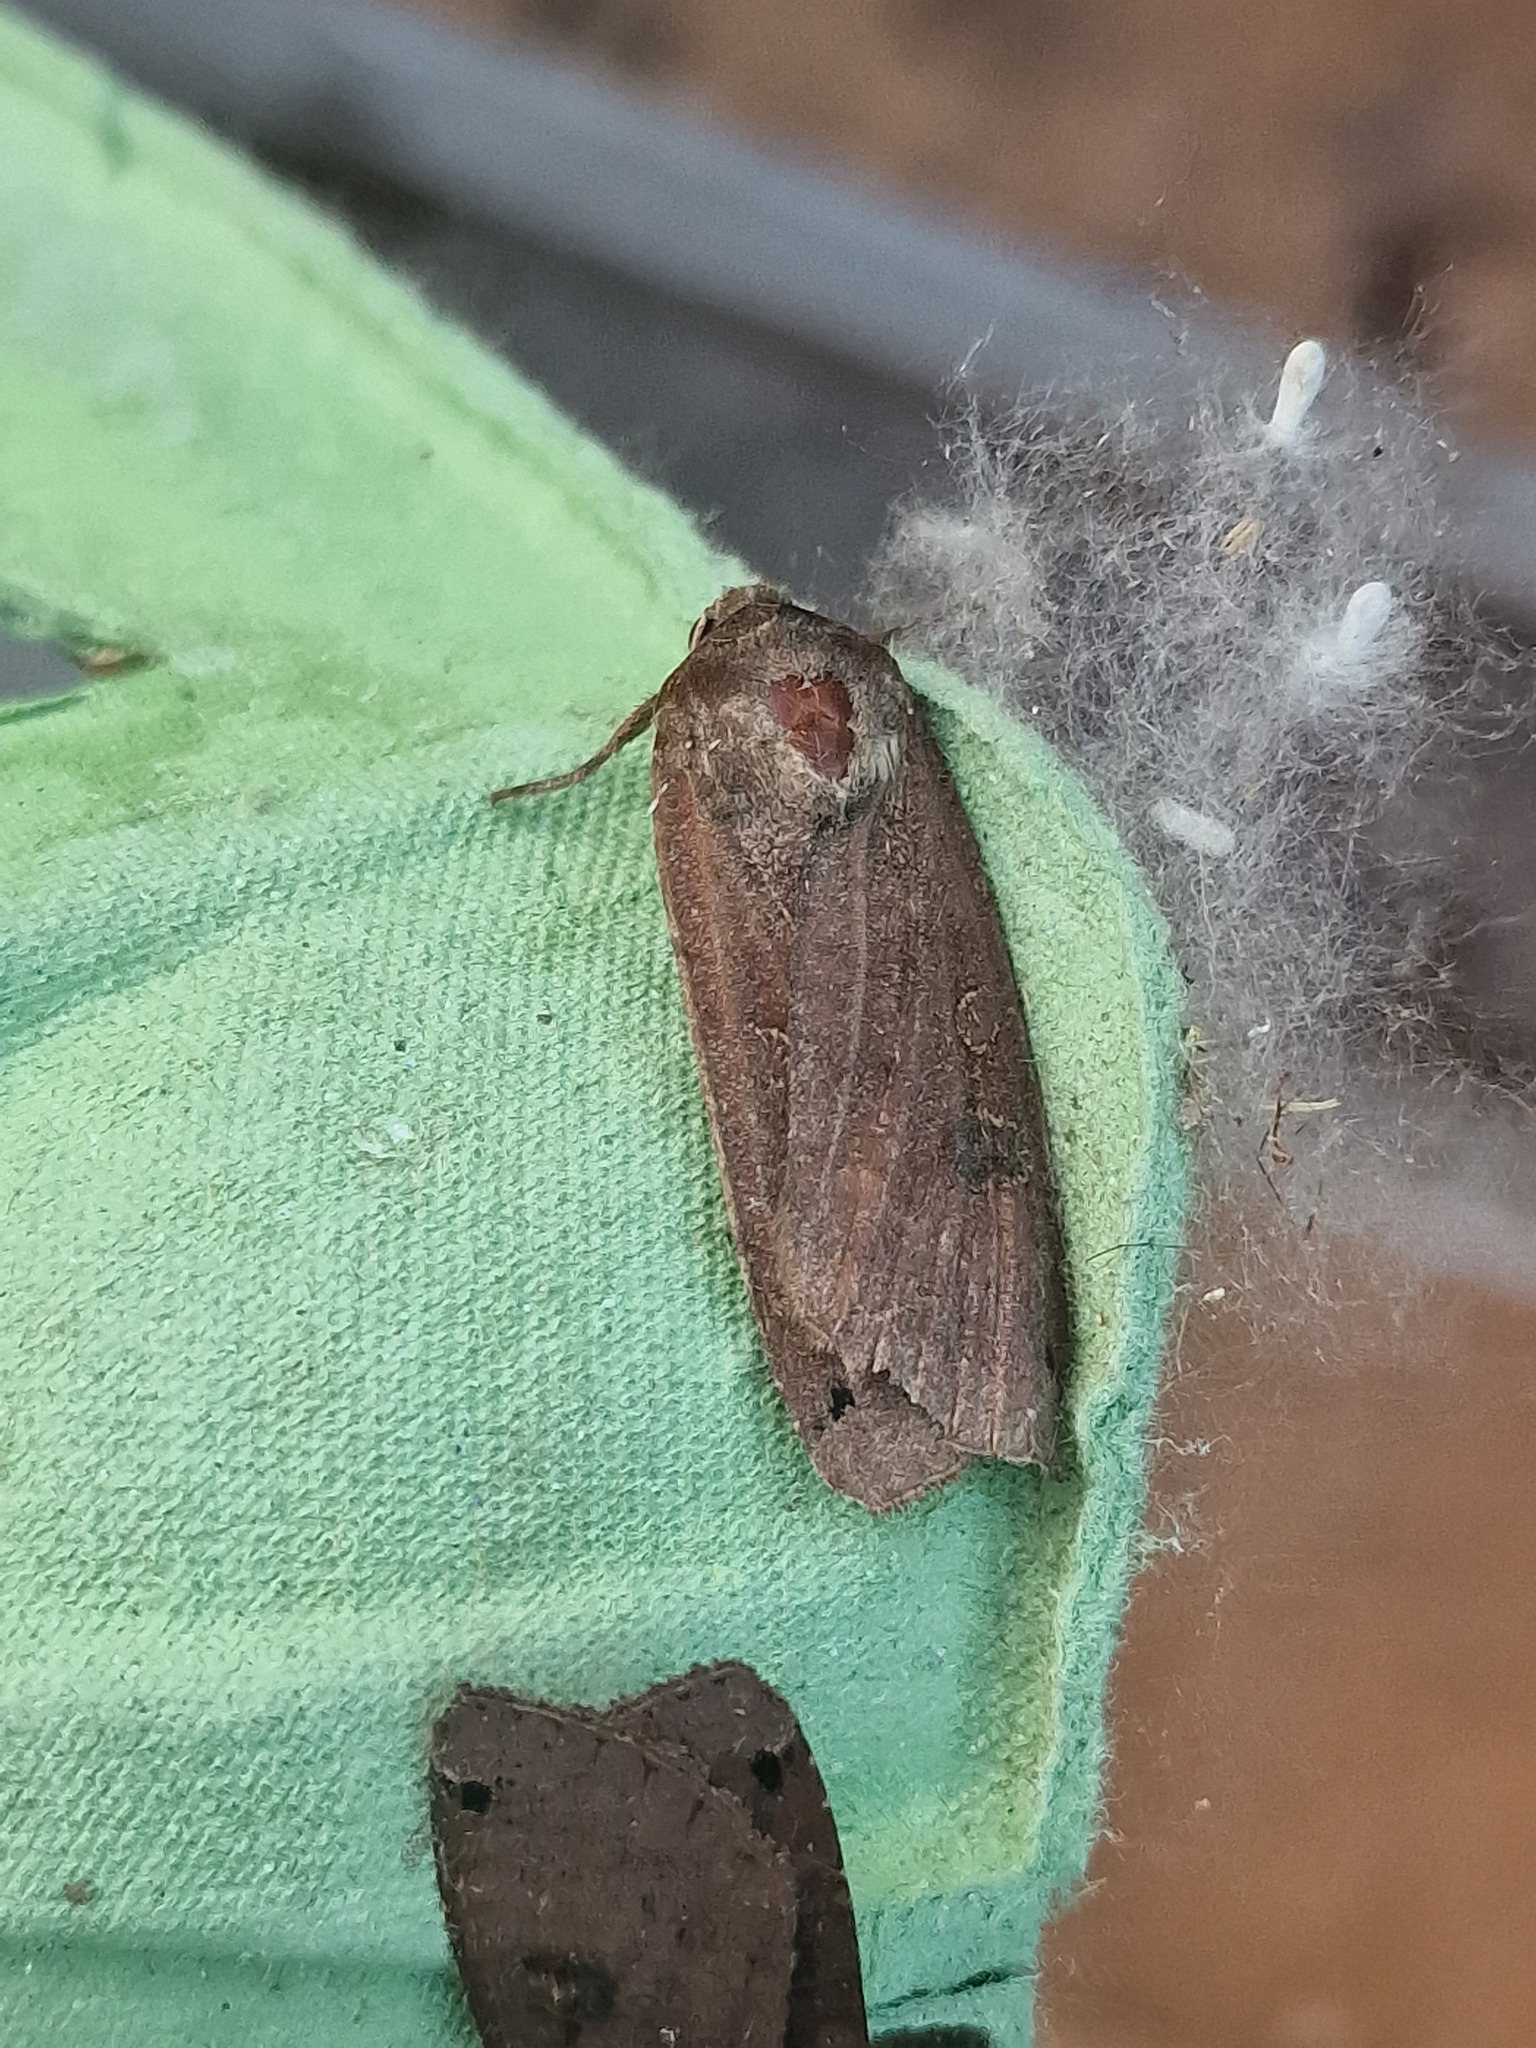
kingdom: Animalia
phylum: Arthropoda
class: Insecta
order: Lepidoptera
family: Noctuidae
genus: Noctua
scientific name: Noctua pronuba
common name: Large yellow underwing
